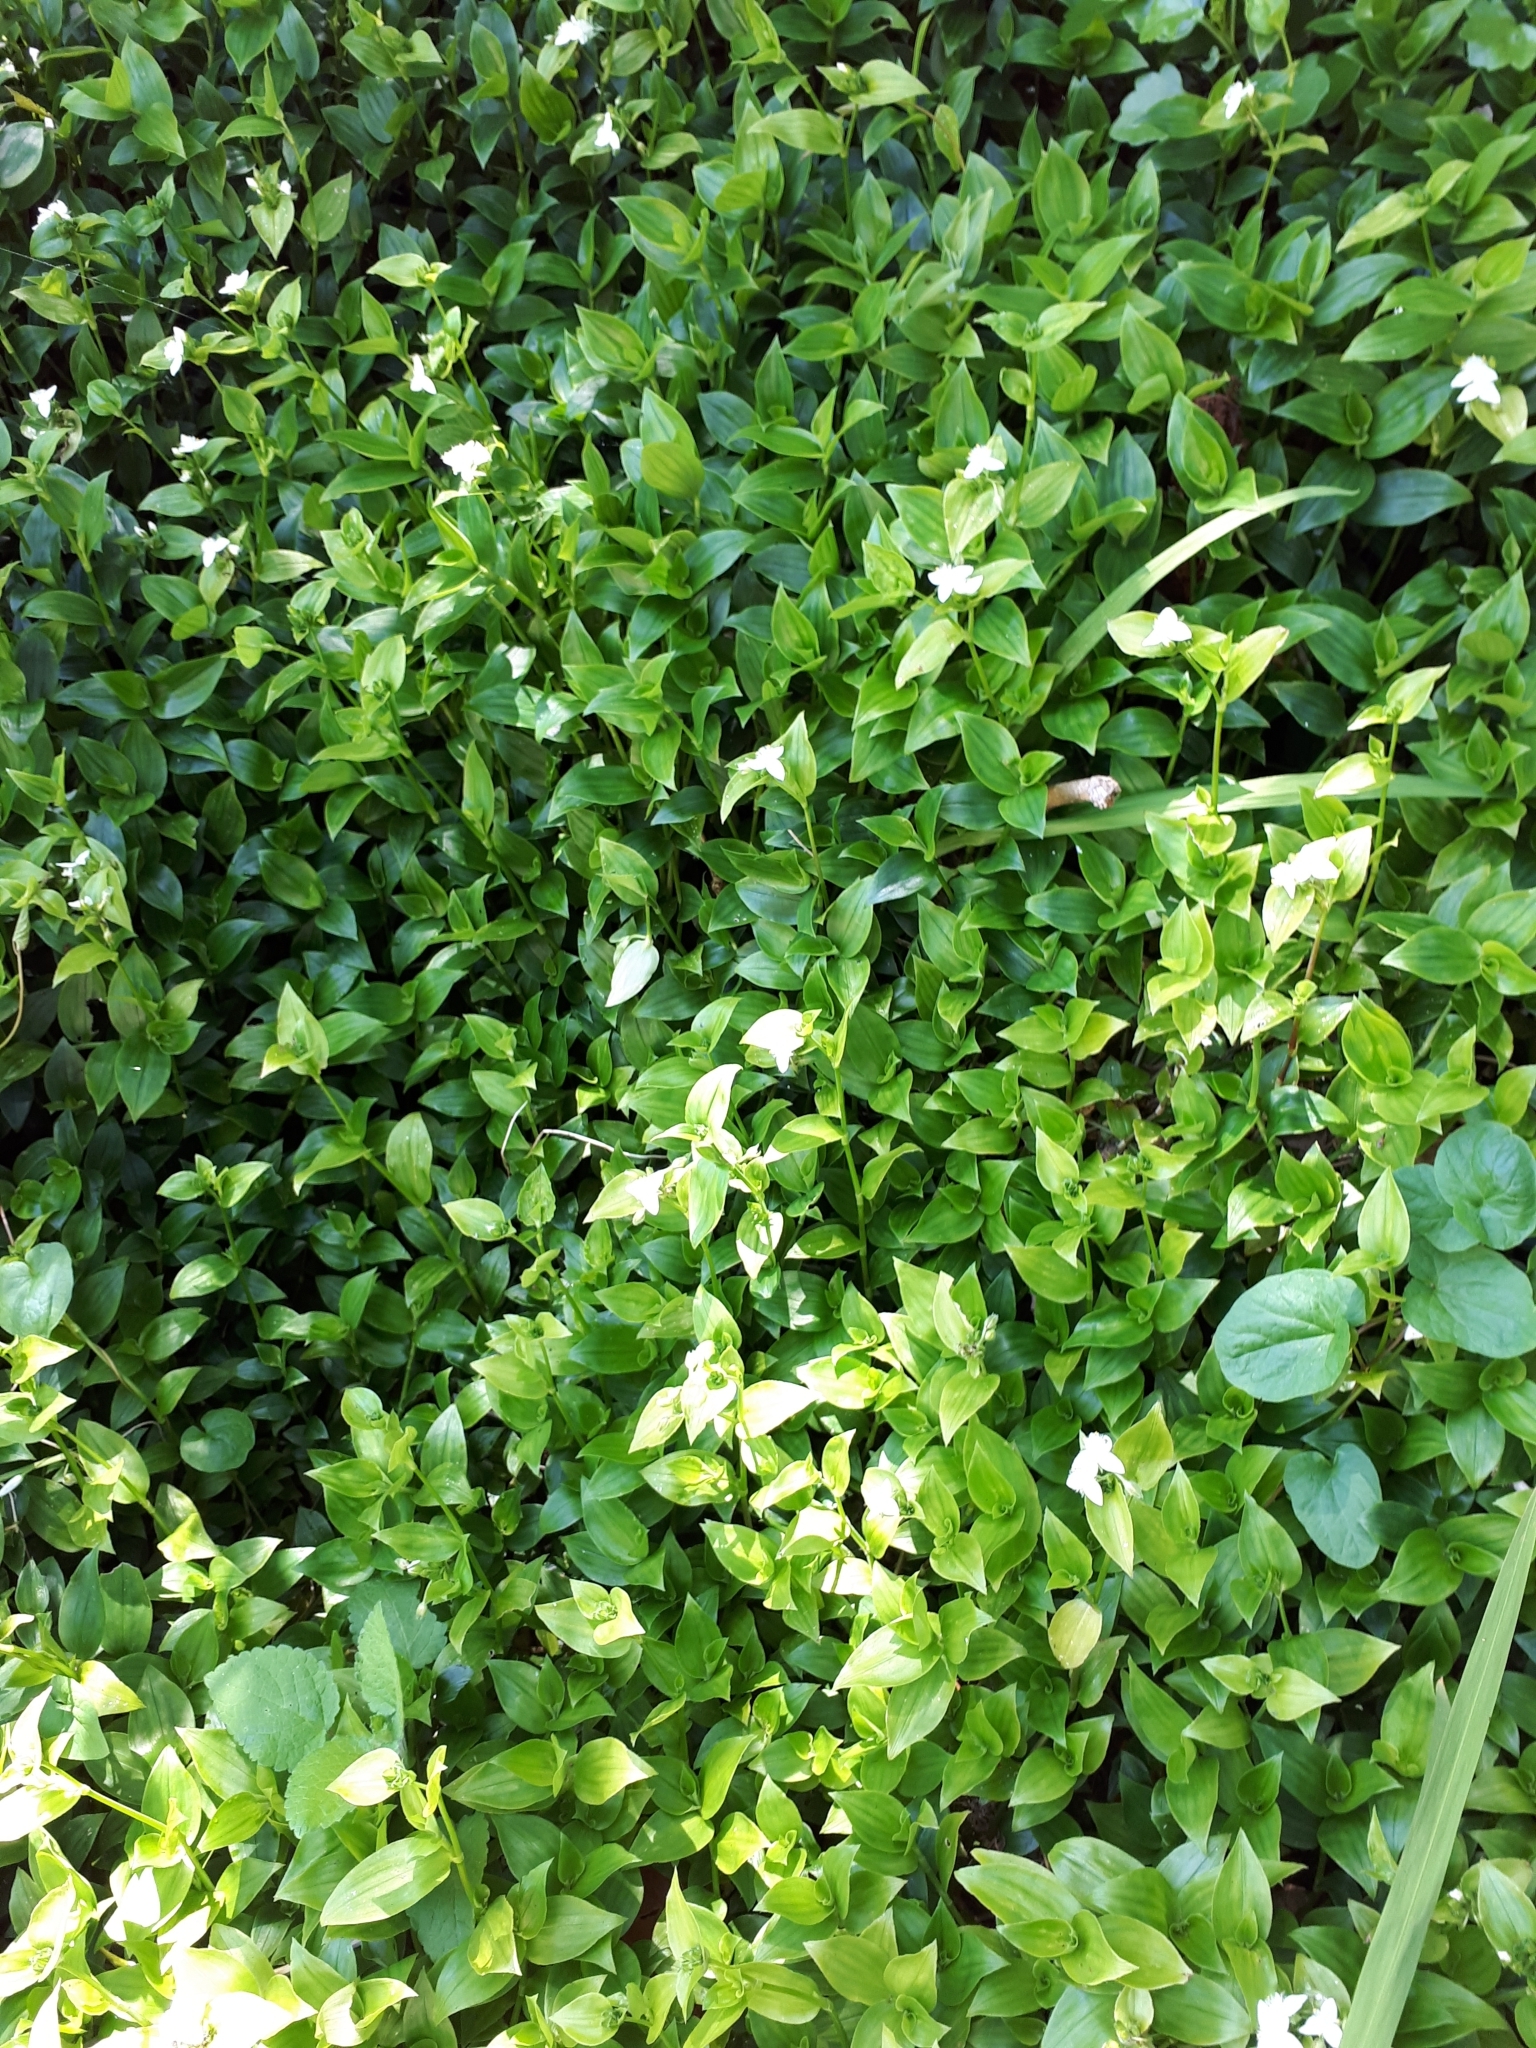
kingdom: Plantae
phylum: Tracheophyta
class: Liliopsida
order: Commelinales
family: Commelinaceae
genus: Tradescantia
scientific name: Tradescantia fluminensis
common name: Wandering-jew
